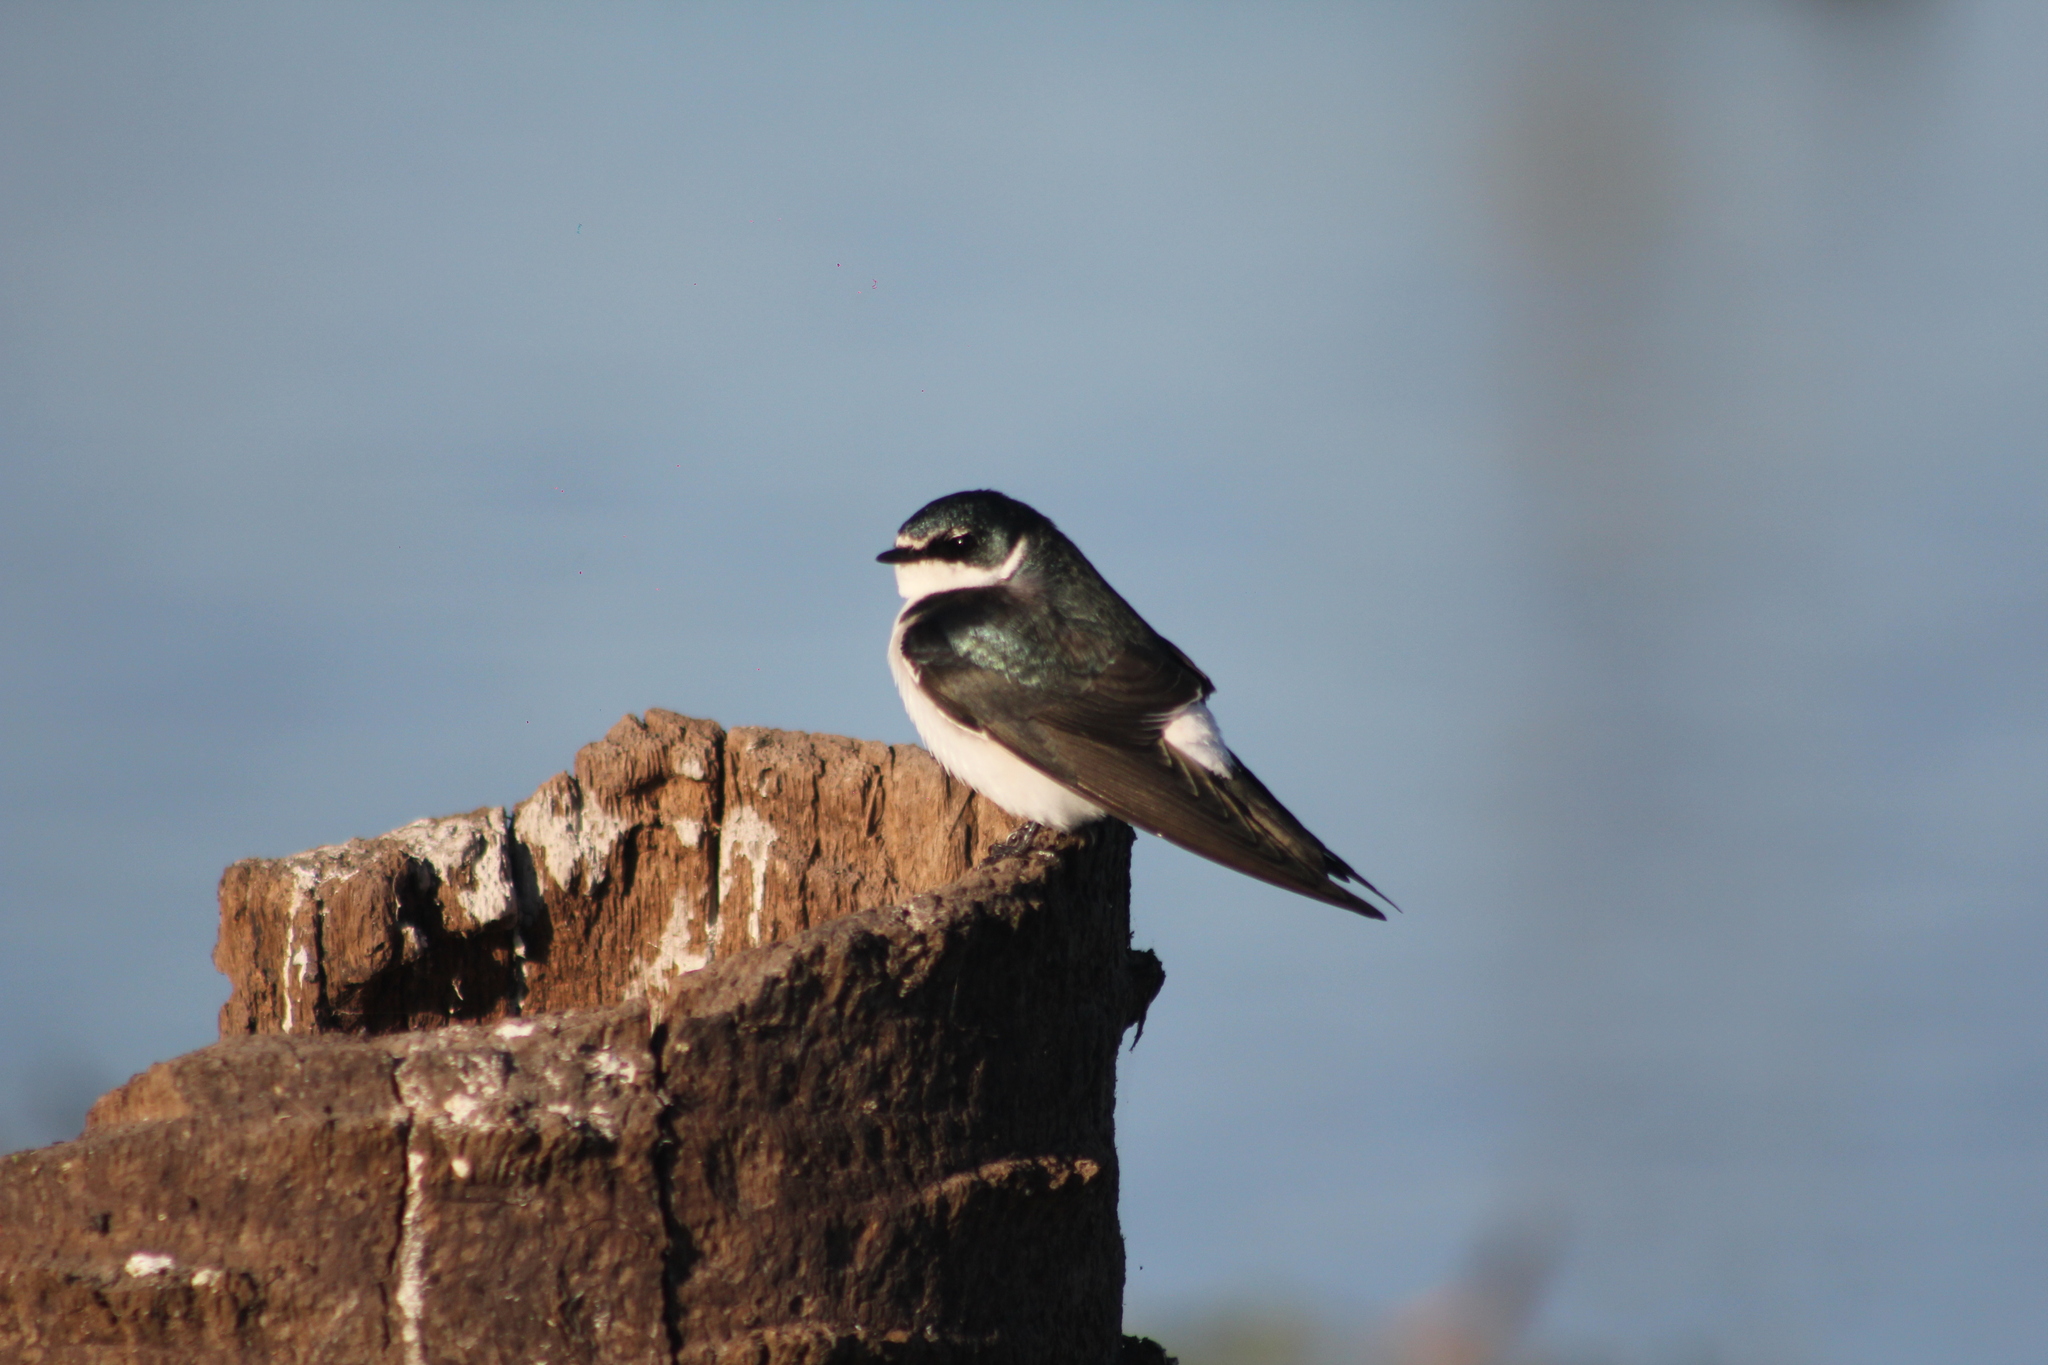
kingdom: Animalia
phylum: Chordata
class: Aves
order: Passeriformes
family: Hirundinidae
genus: Tachycineta
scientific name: Tachycineta leucorrhoa
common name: White-rumped swallow
